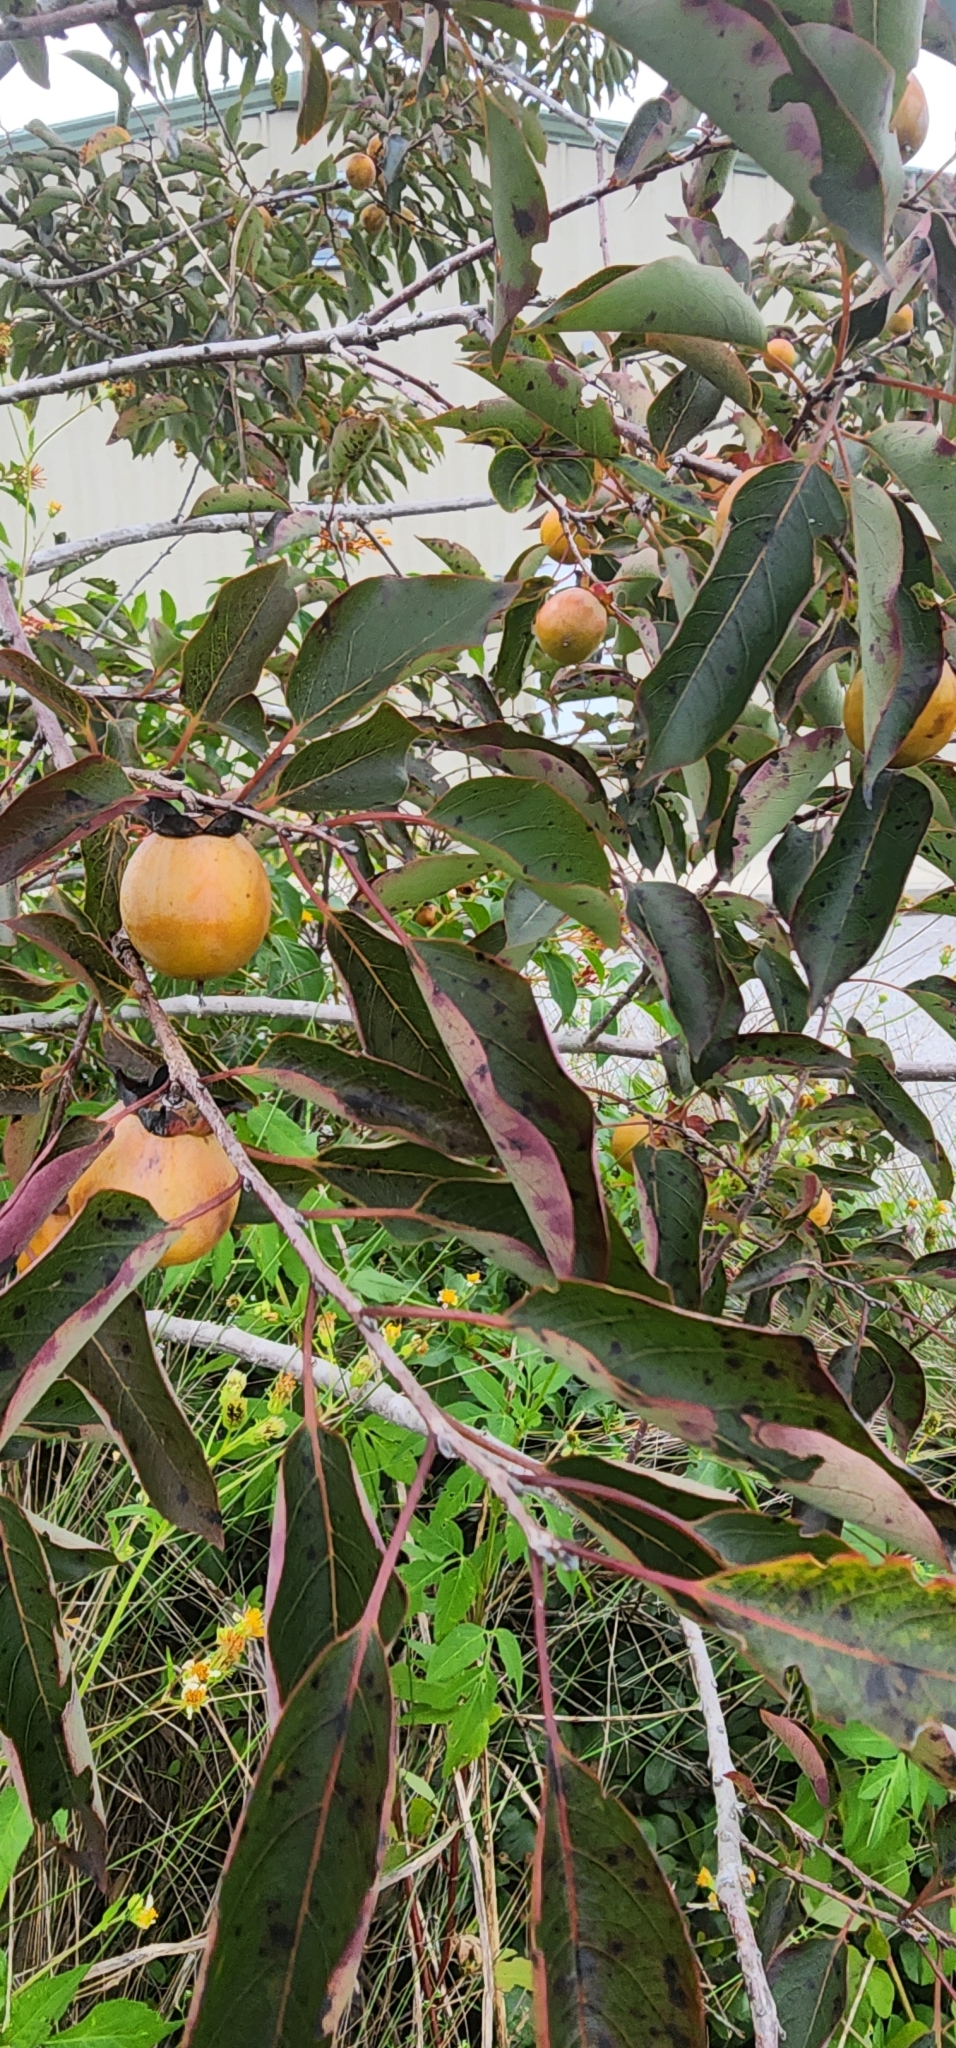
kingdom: Plantae
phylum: Tracheophyta
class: Magnoliopsida
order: Ericales
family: Ebenaceae
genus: Diospyros
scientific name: Diospyros virginiana
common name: Persimmon
